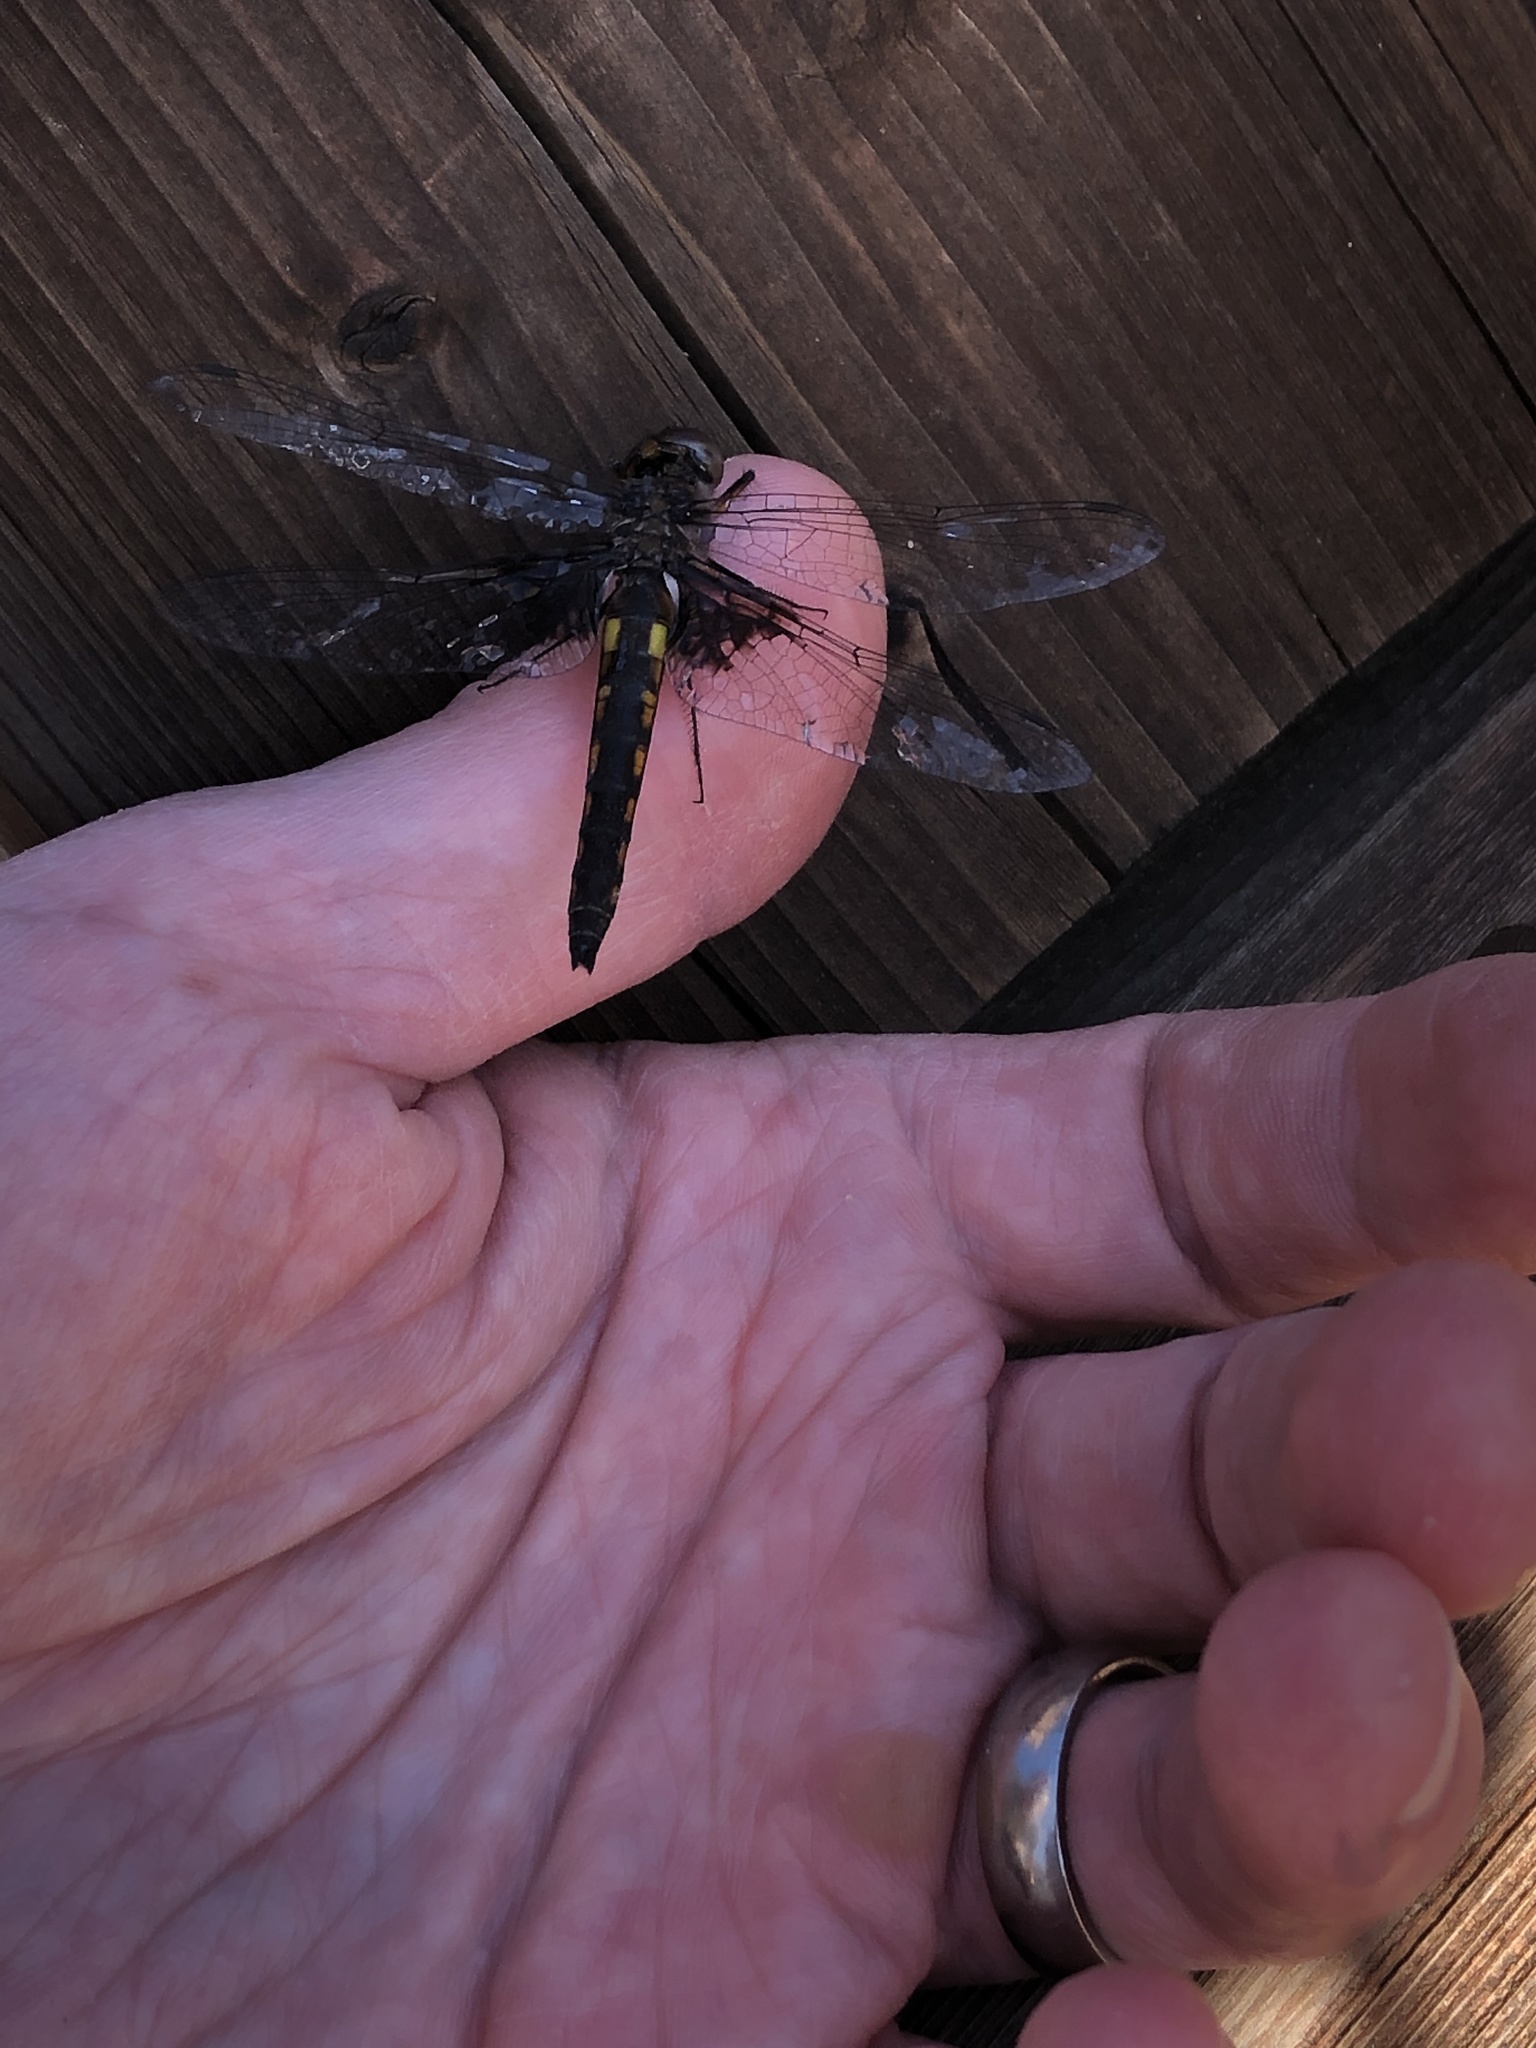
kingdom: Animalia
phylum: Arthropoda
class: Insecta
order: Odonata
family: Corduliidae
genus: Epitheca
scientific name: Epitheca cynosura
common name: Common baskettail
